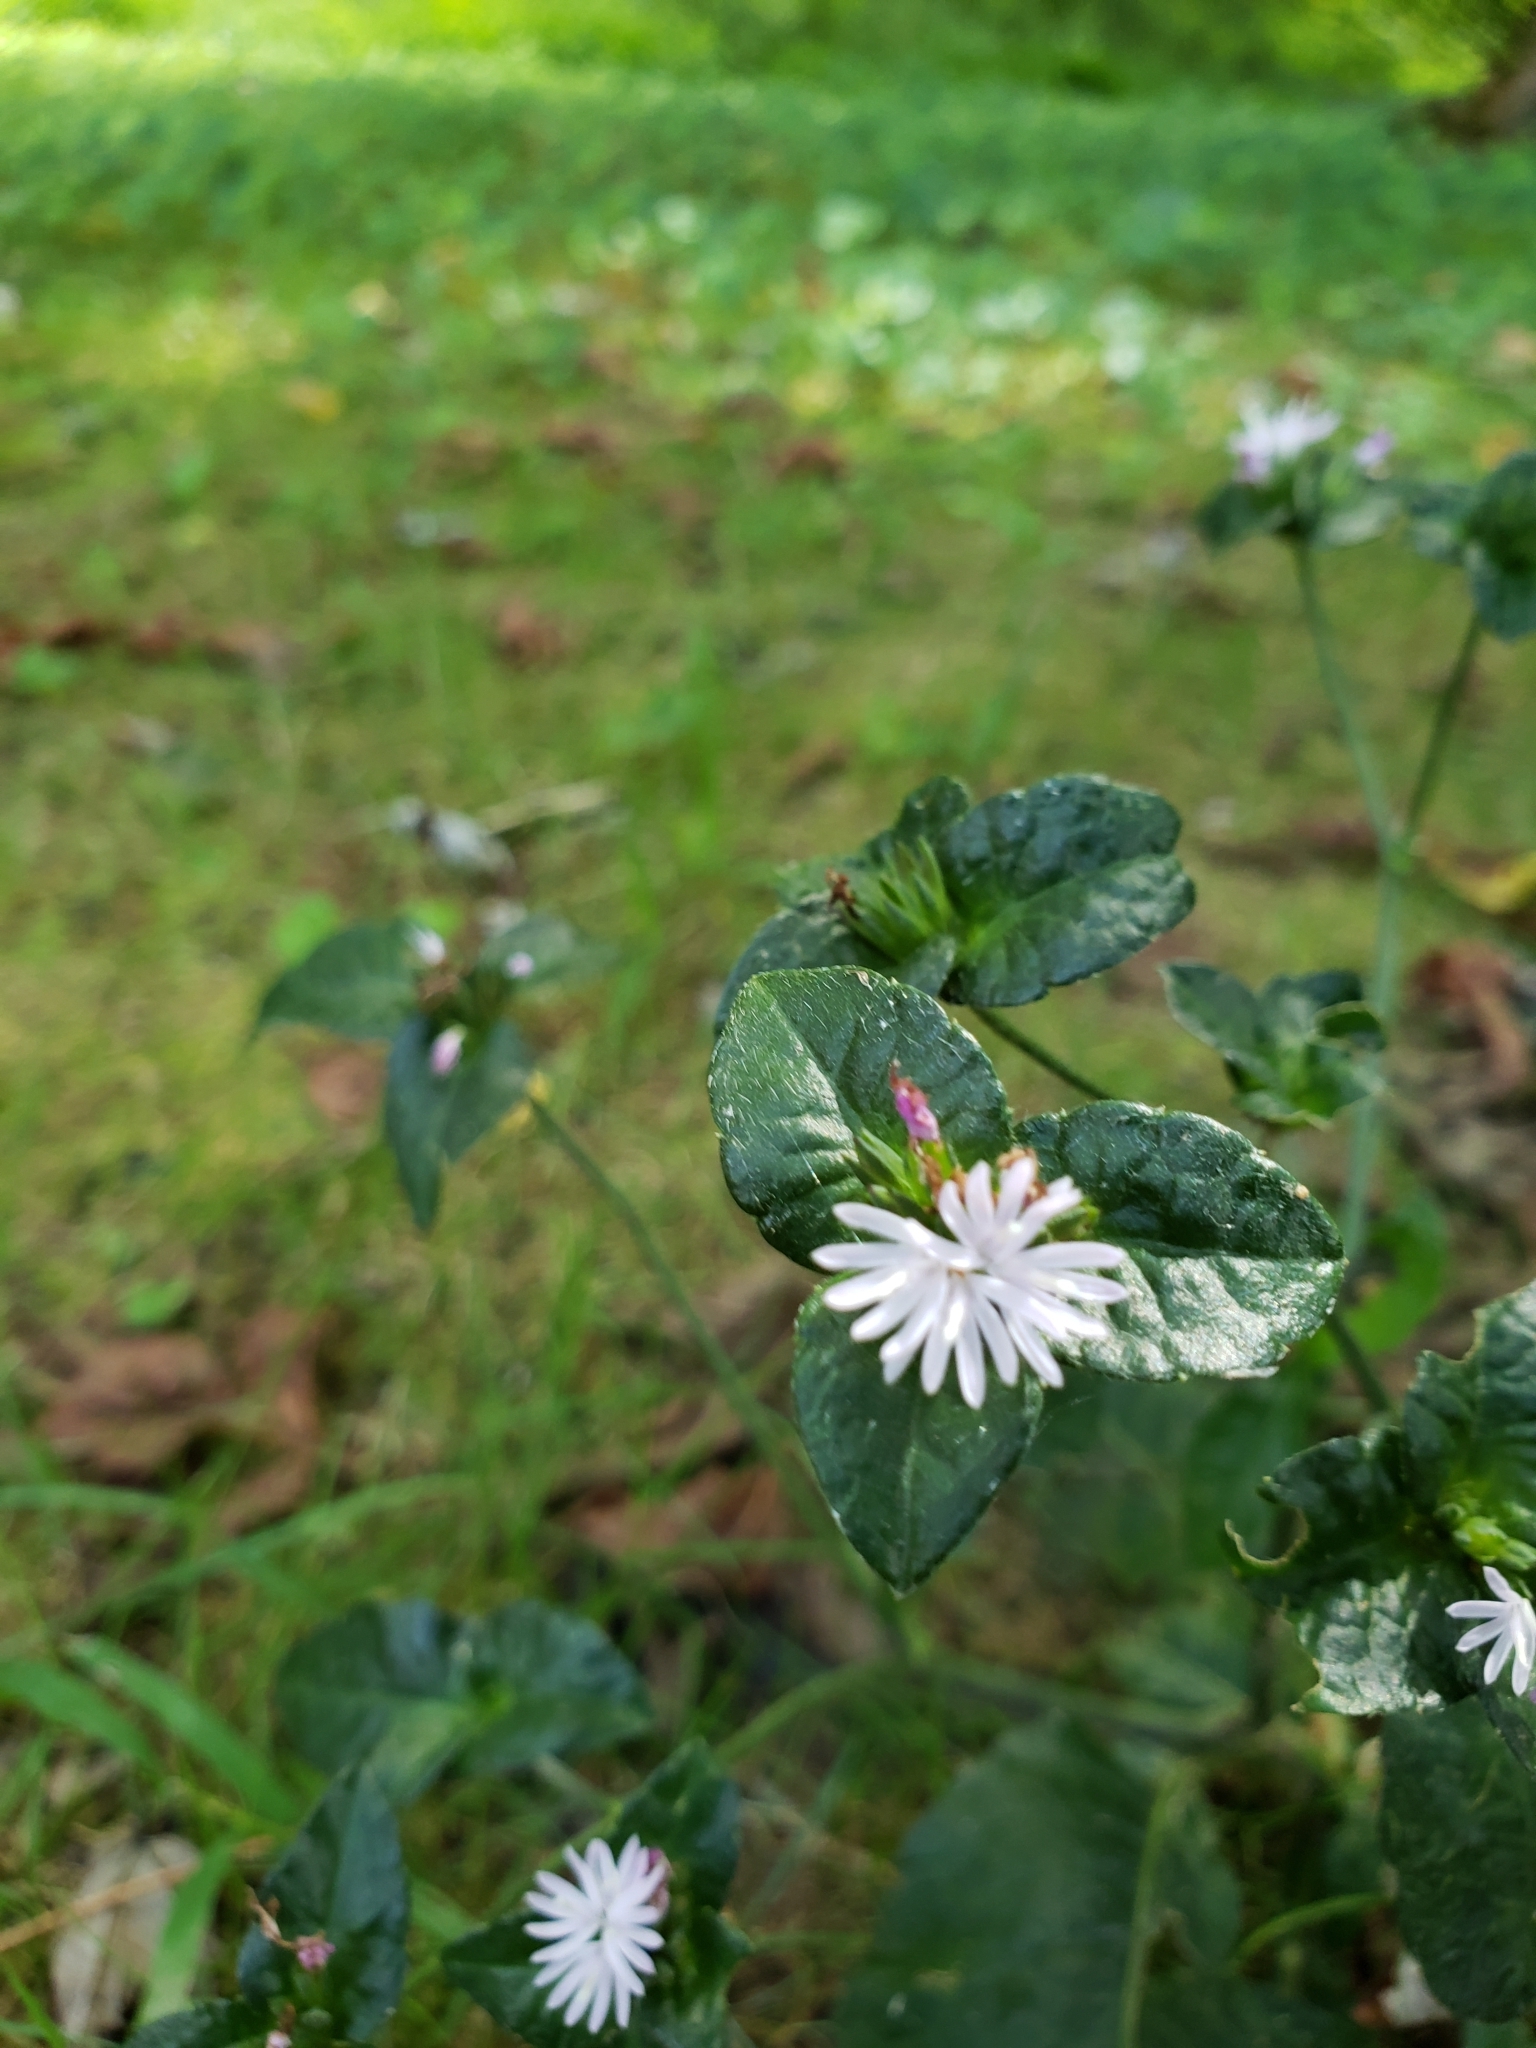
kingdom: Plantae
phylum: Tracheophyta
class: Magnoliopsida
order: Asterales
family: Asteraceae
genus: Elephantopus
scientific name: Elephantopus carolinianus
